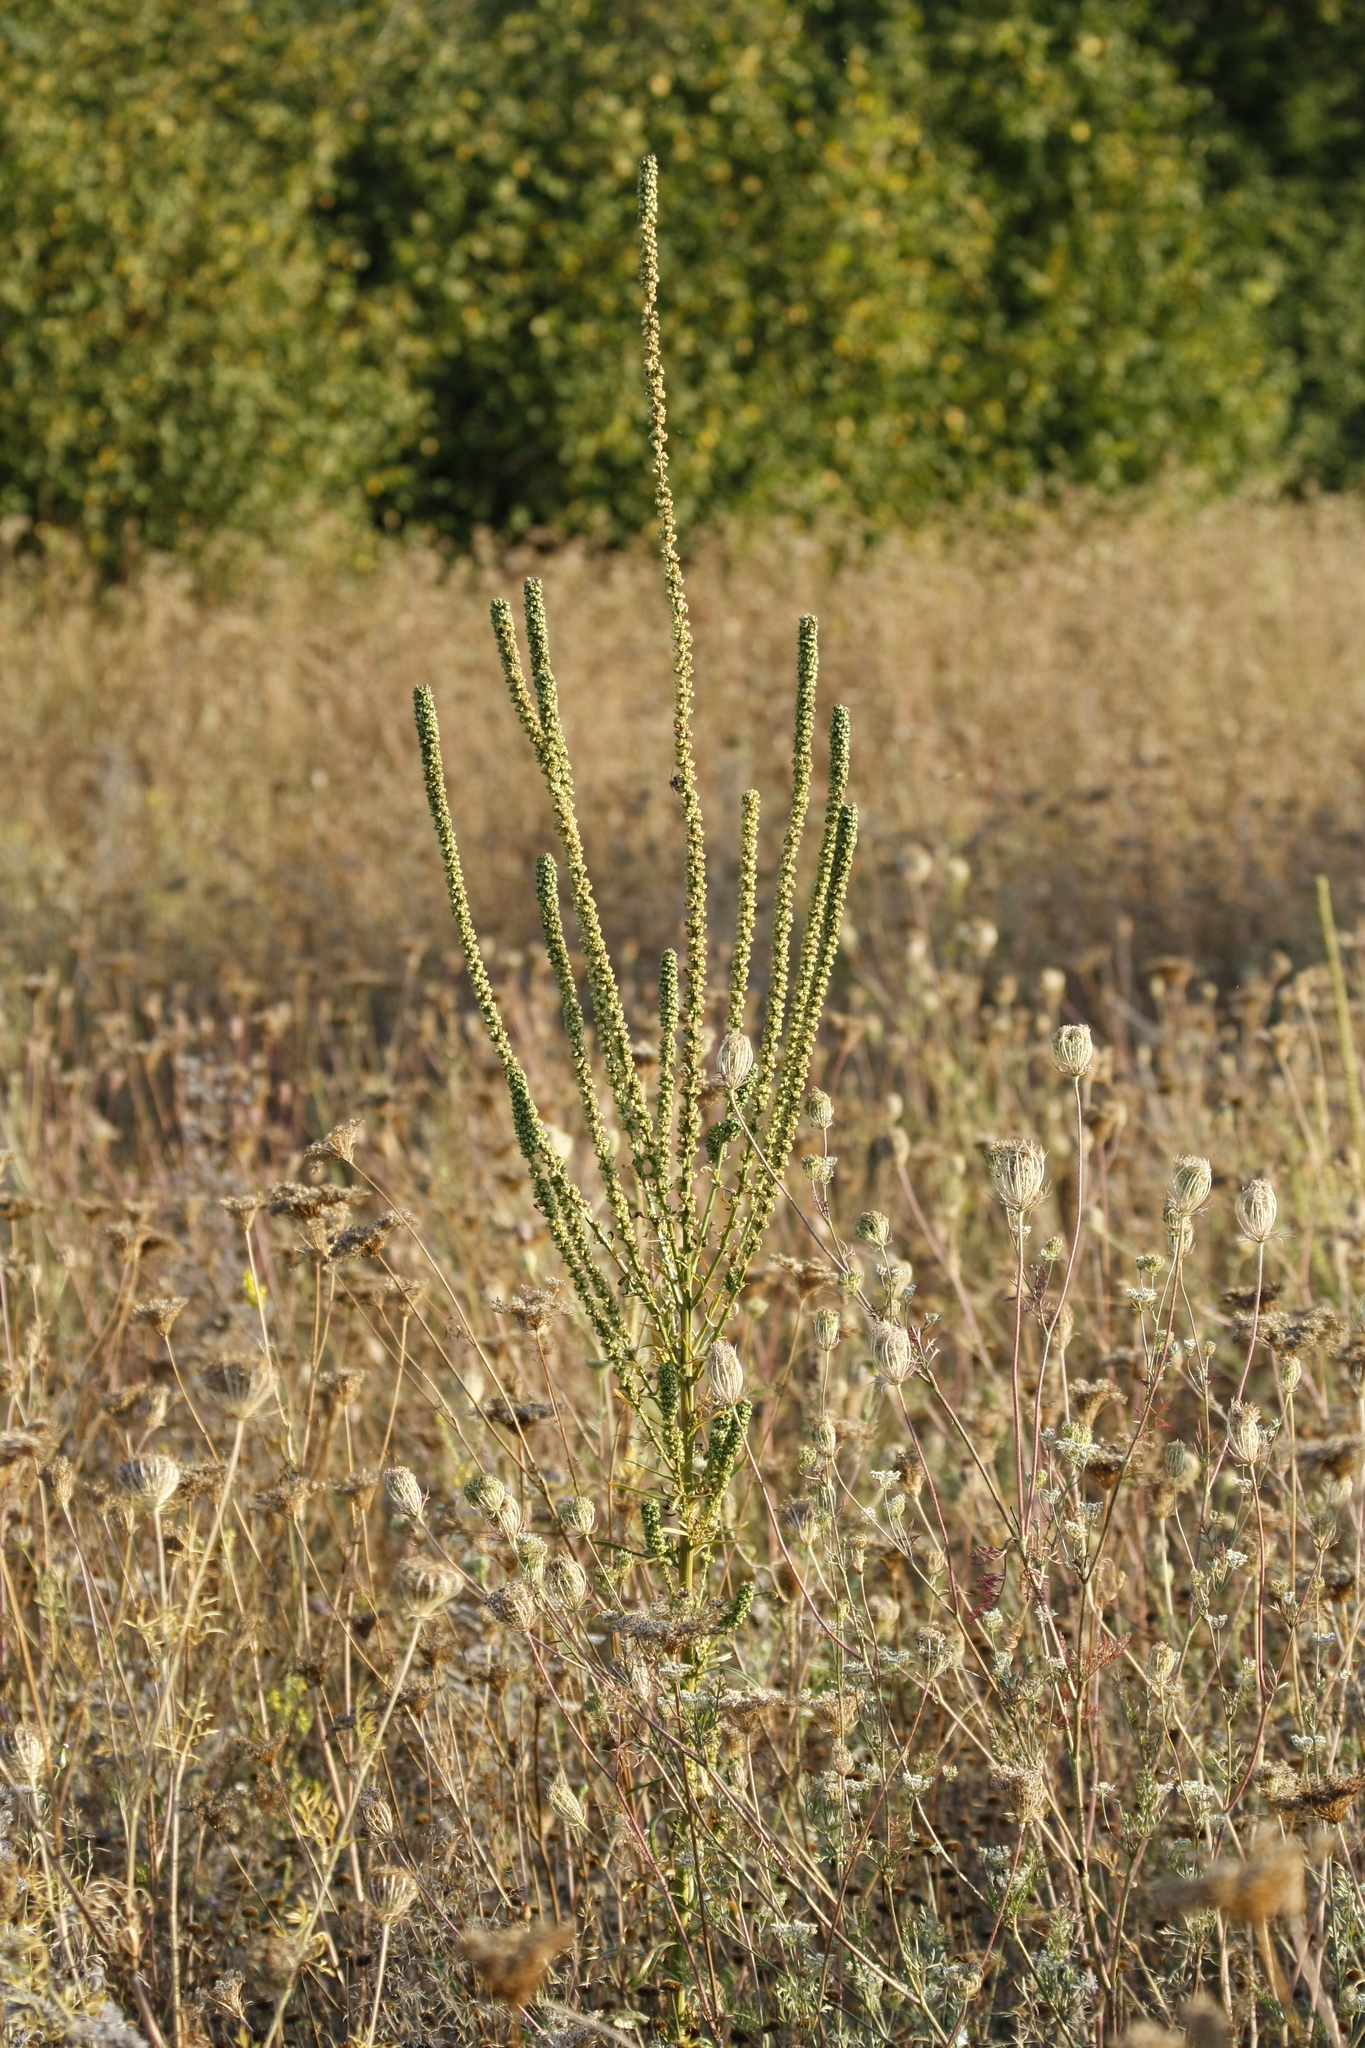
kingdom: Plantae
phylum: Tracheophyta
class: Magnoliopsida
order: Brassicales
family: Resedaceae
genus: Reseda
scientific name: Reseda luteola
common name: Weld
